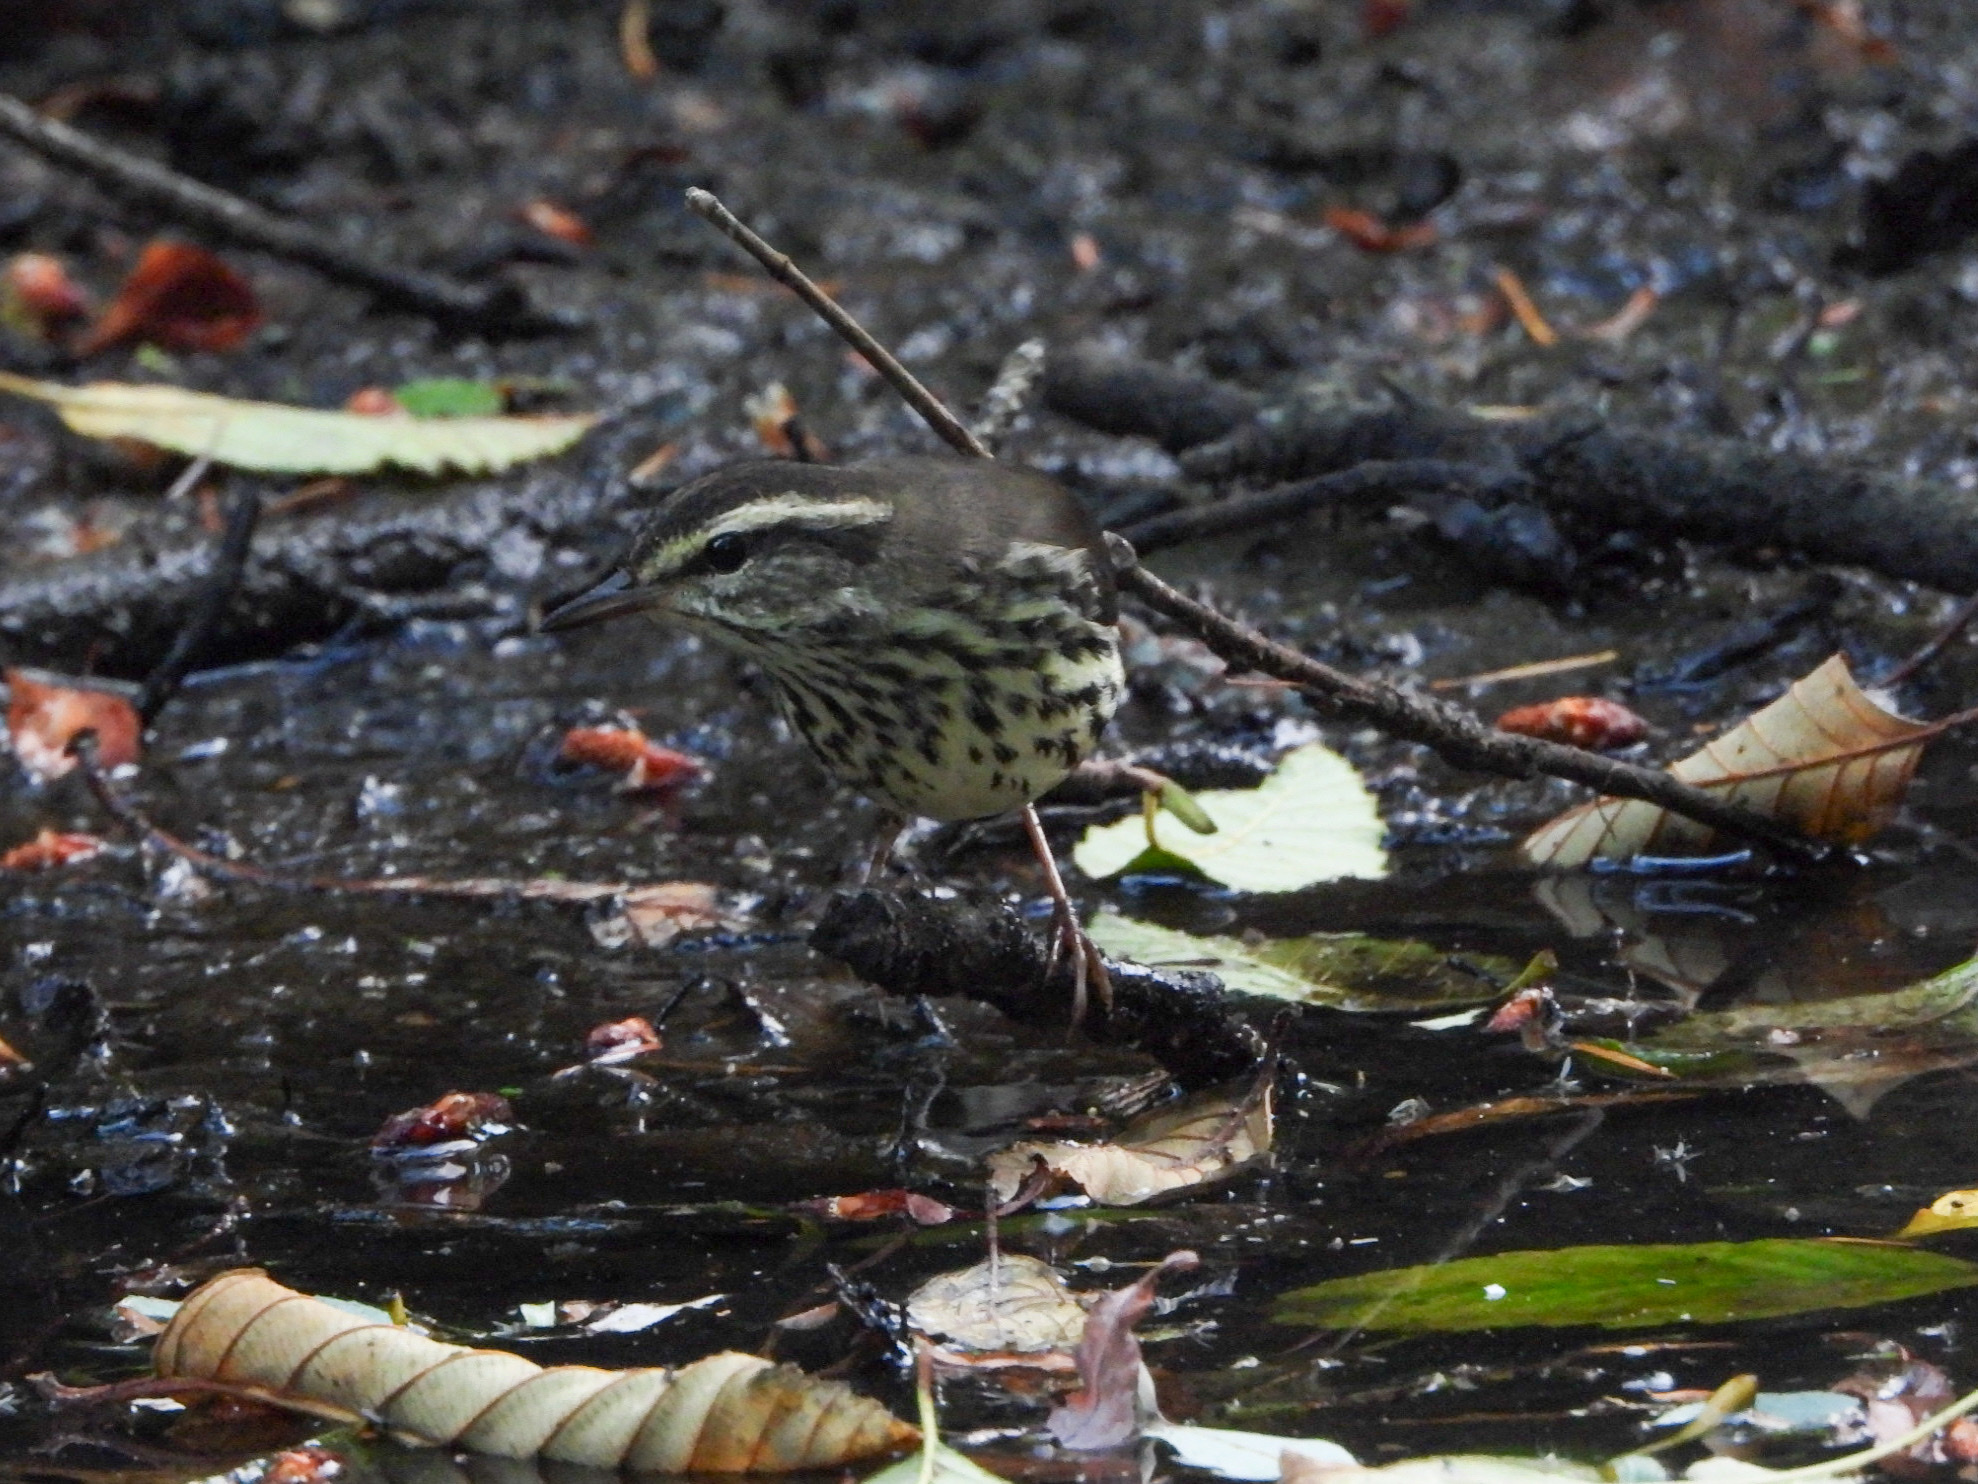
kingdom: Animalia
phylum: Chordata
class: Aves
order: Passeriformes
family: Parulidae
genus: Parkesia
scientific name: Parkesia noveboracensis
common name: Northern waterthrush
